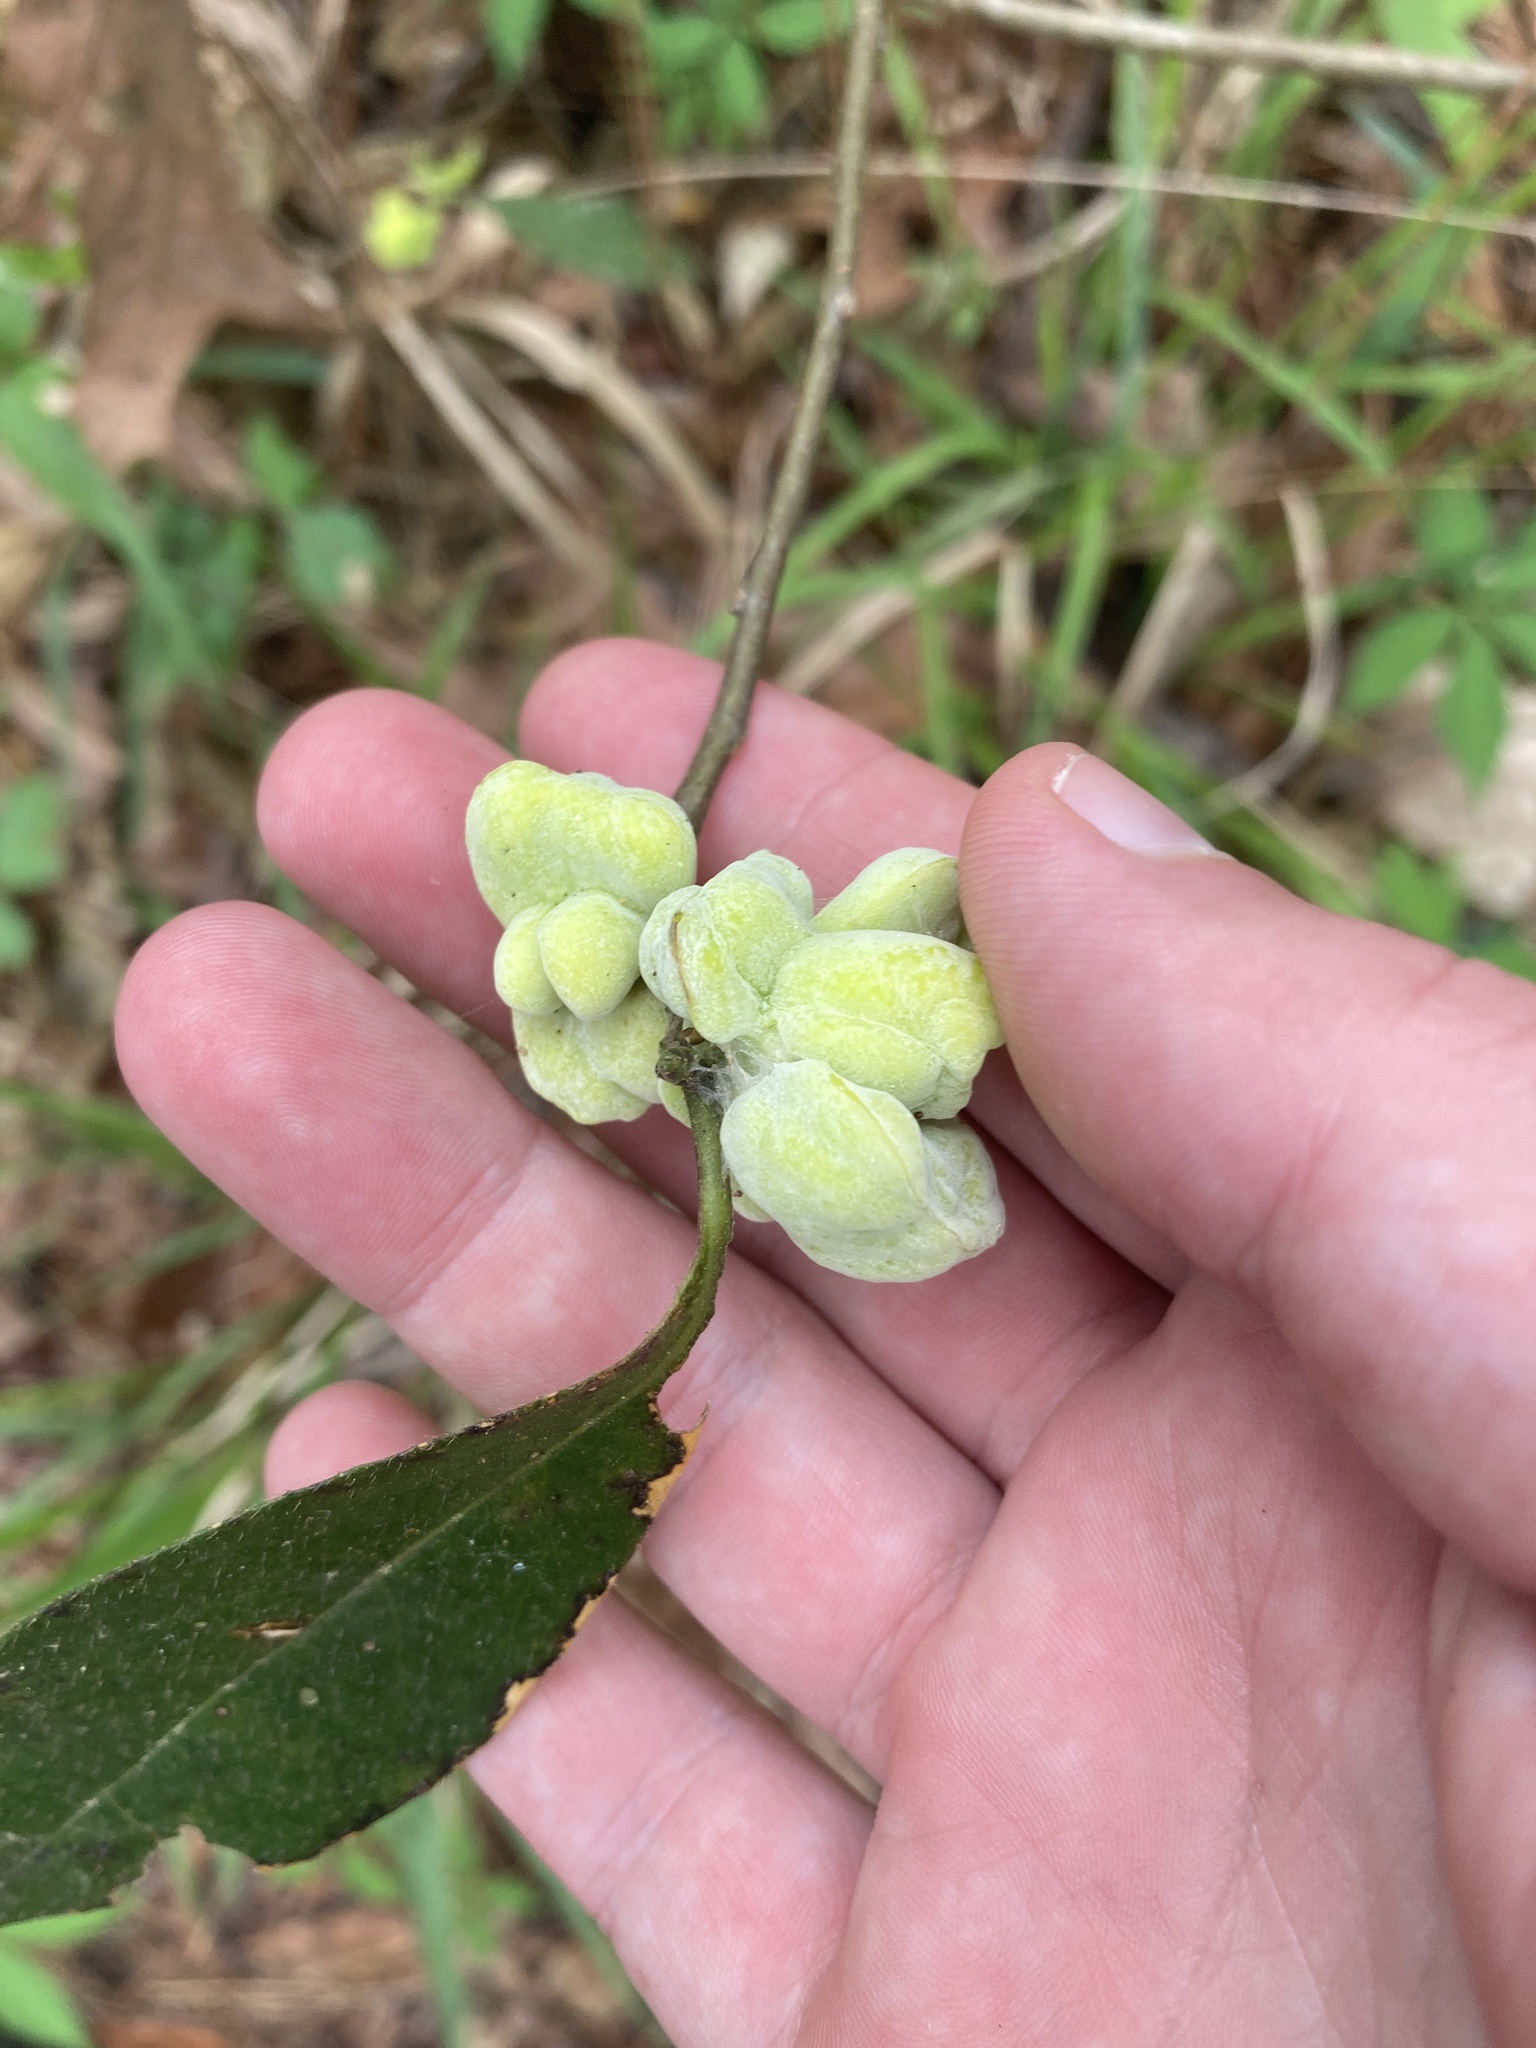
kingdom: Fungi
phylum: Basidiomycota
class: Exobasidiomycetes
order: Exobasidiales
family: Exobasidiaceae
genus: Exobasidium
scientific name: Exobasidium symploci
